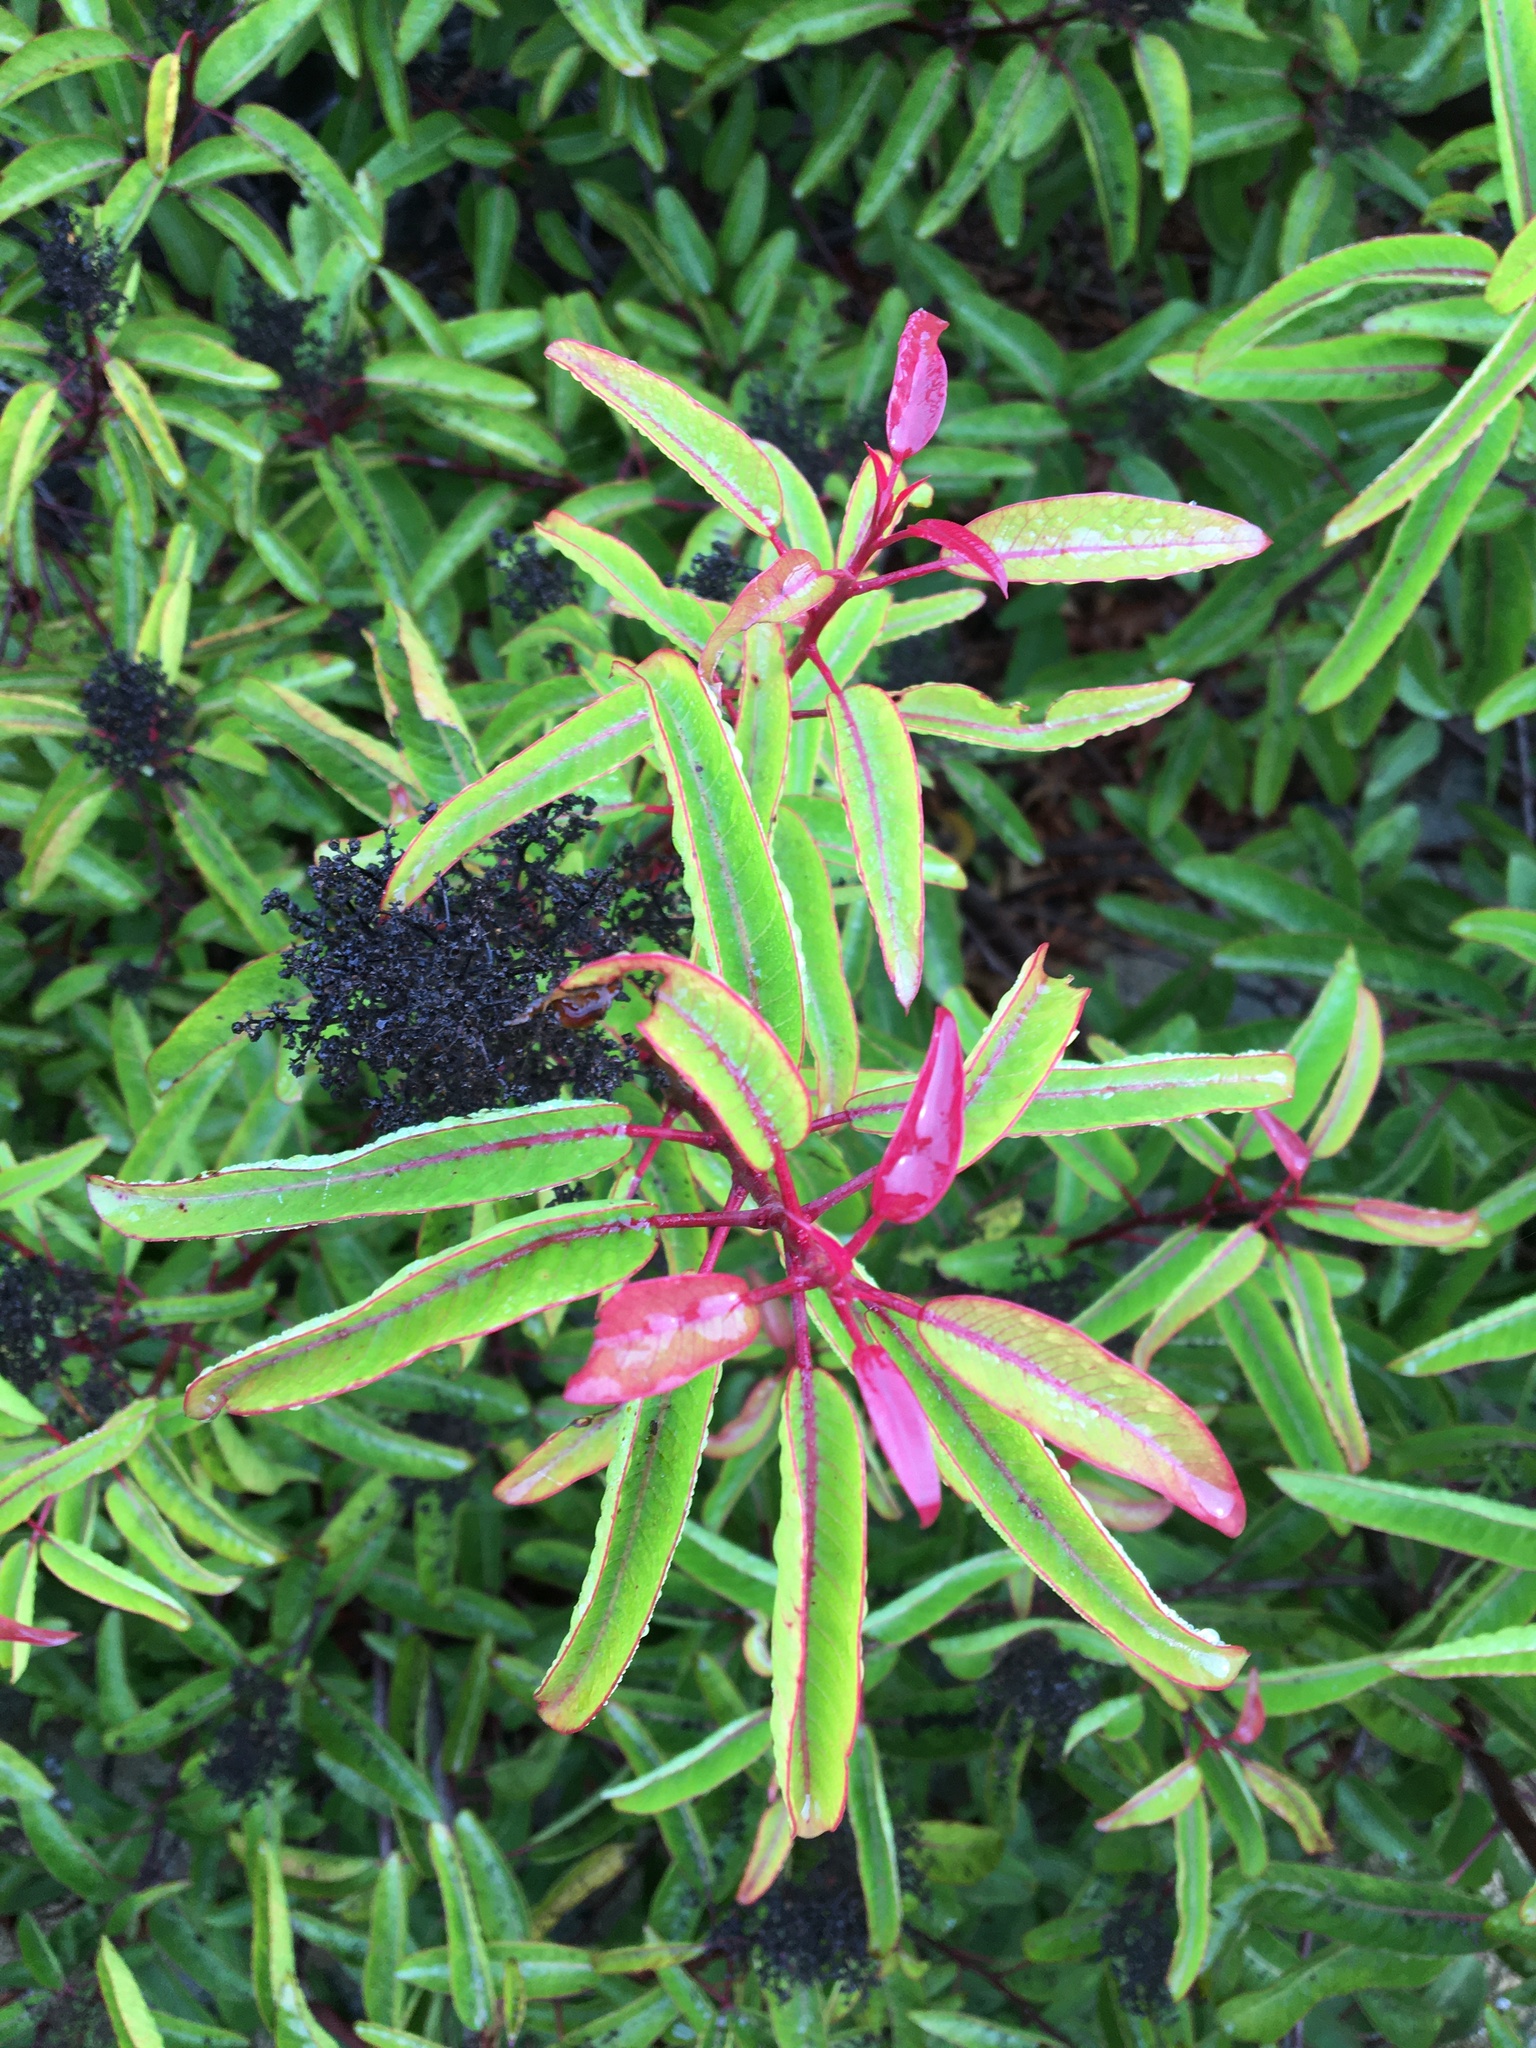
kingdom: Plantae
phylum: Tracheophyta
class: Magnoliopsida
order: Sapindales
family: Anacardiaceae
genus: Malosma
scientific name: Malosma laurina
